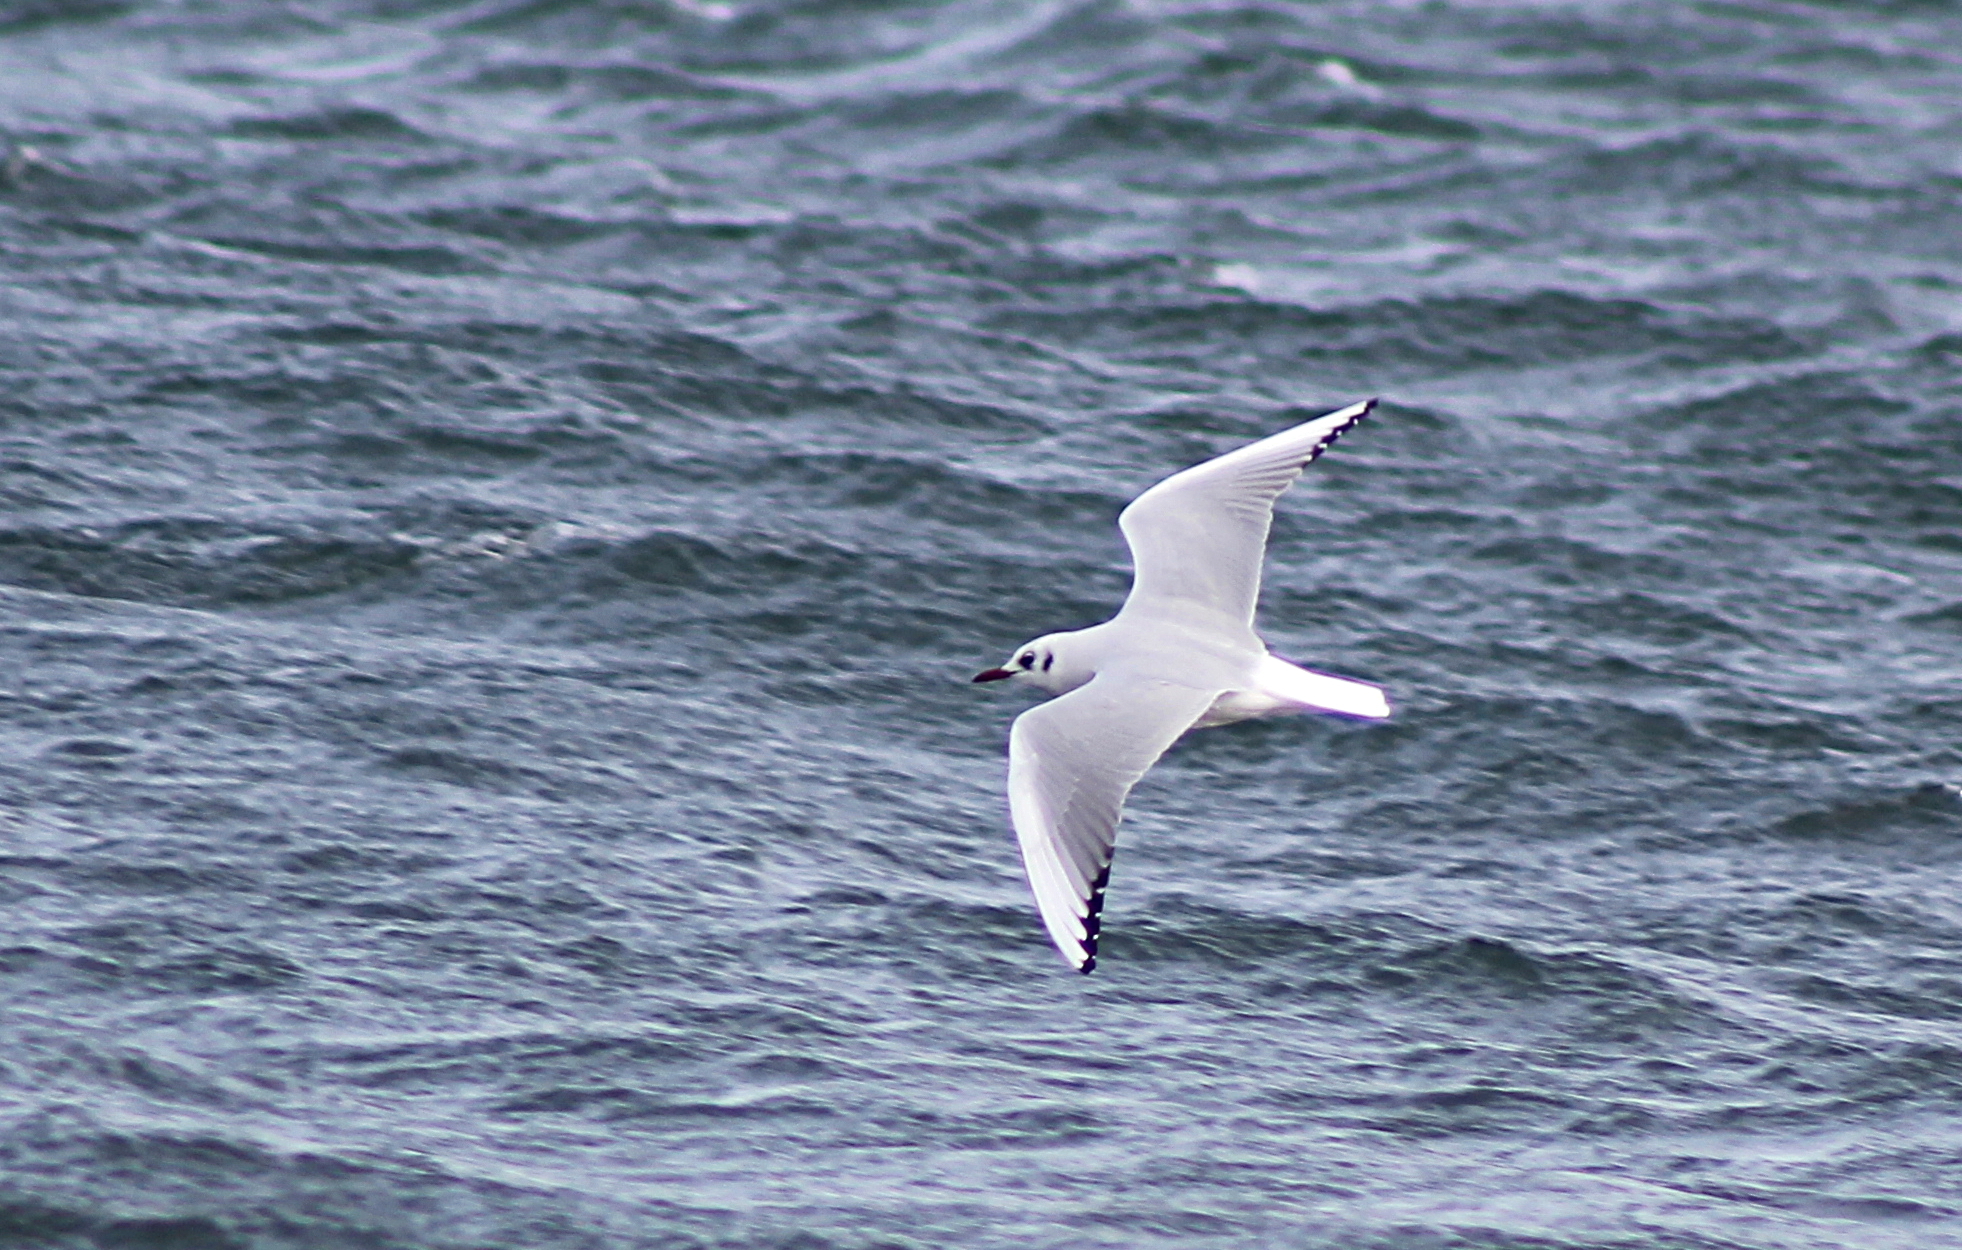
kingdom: Animalia
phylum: Chordata
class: Aves
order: Charadriiformes
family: Laridae
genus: Chroicocephalus
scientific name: Chroicocephalus ridibundus
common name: Black-headed gull
